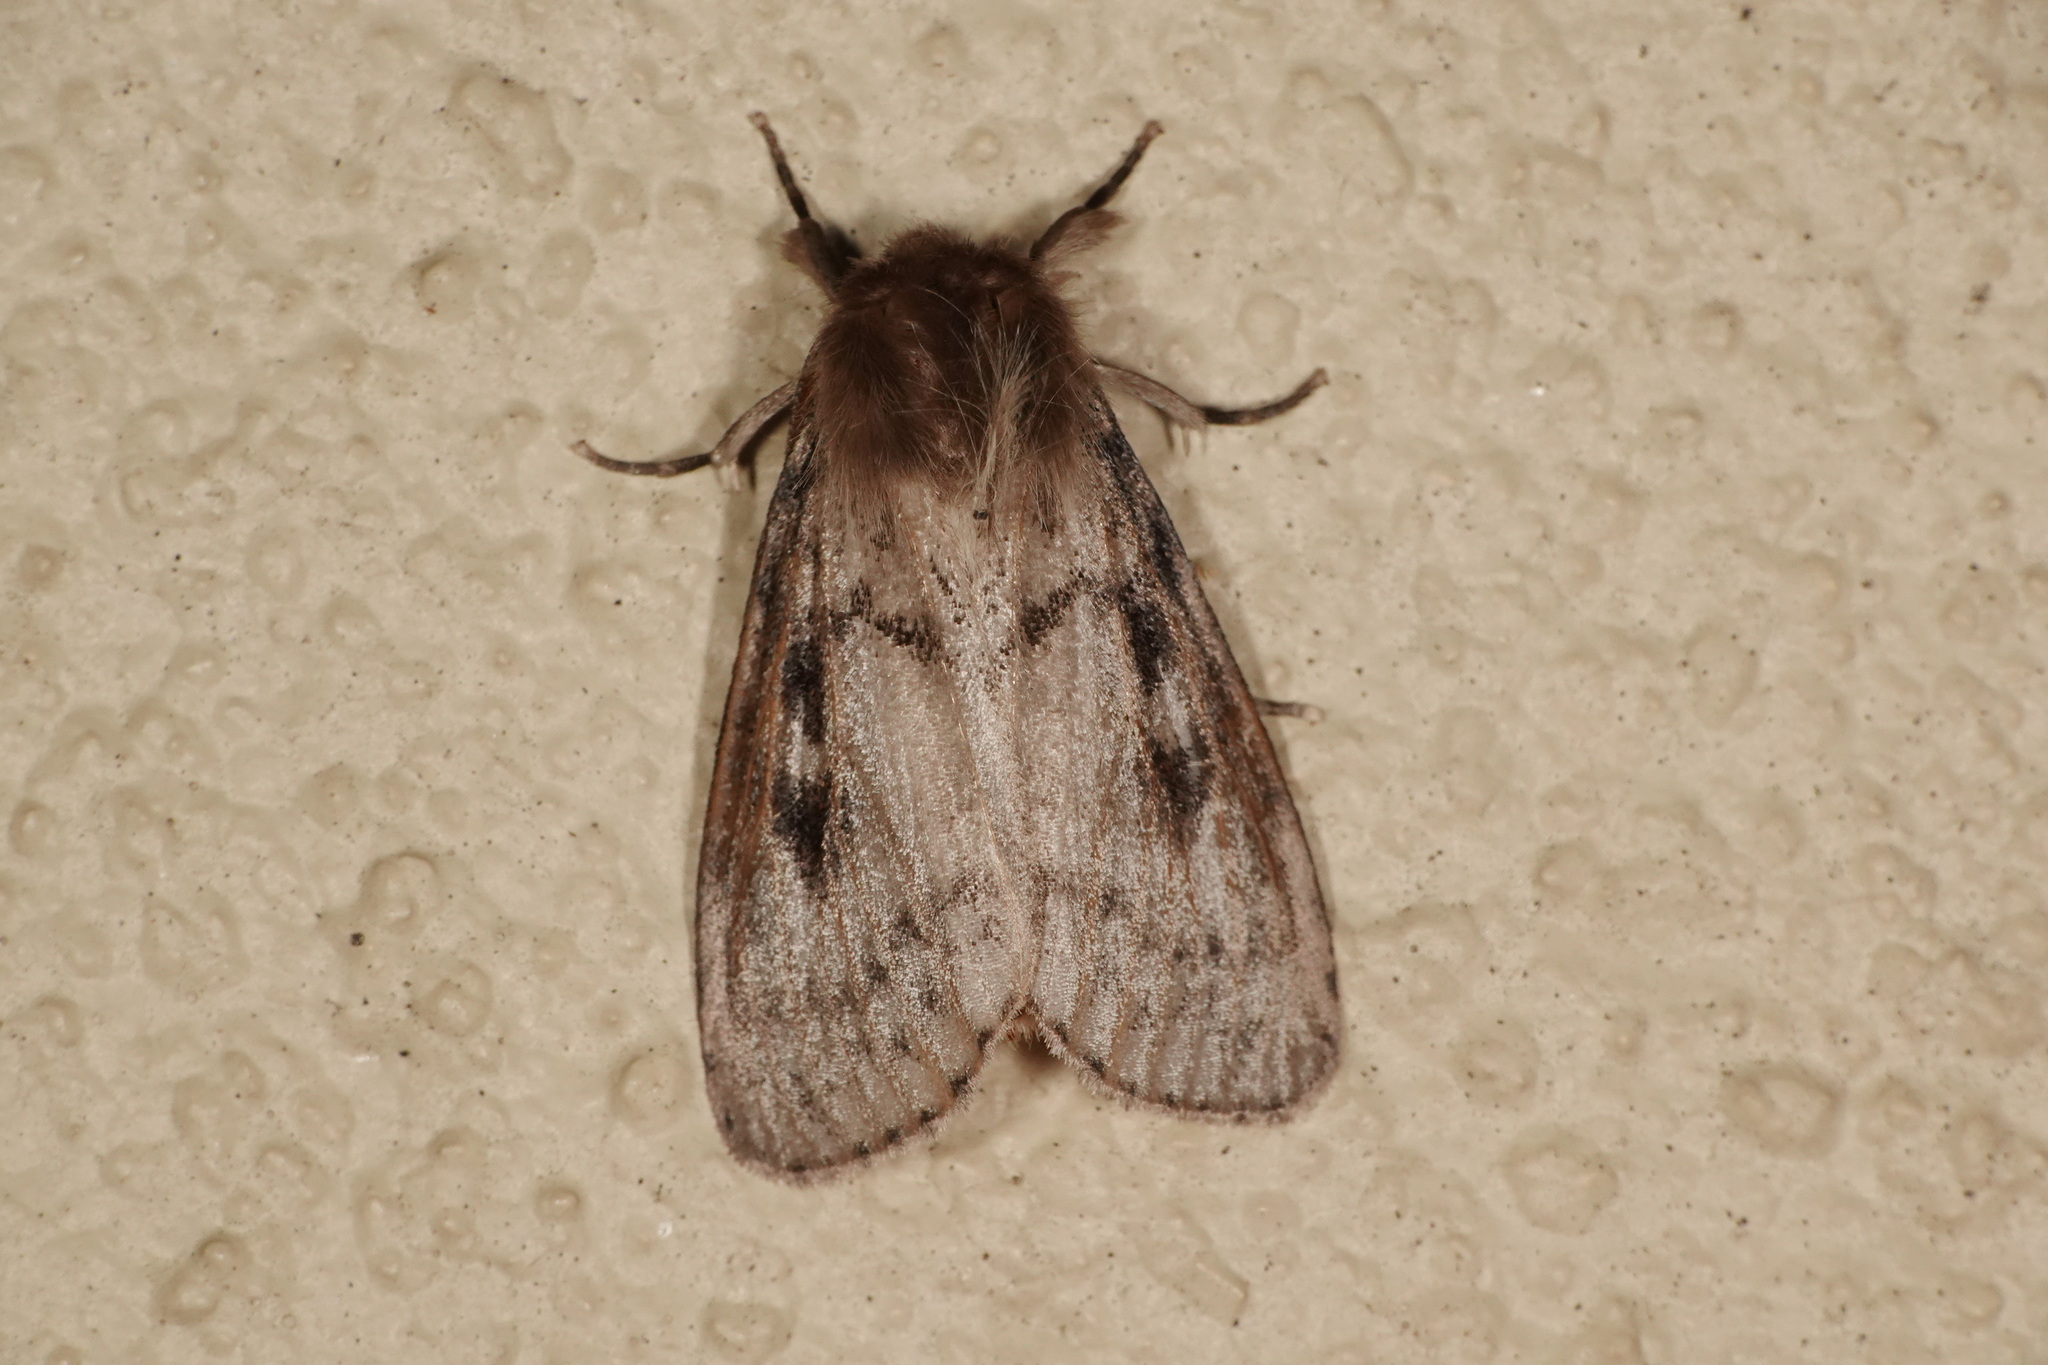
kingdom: Animalia
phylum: Arthropoda
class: Insecta
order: Lepidoptera
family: Erebidae
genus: Leptocneria
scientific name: Leptocneria reducta
